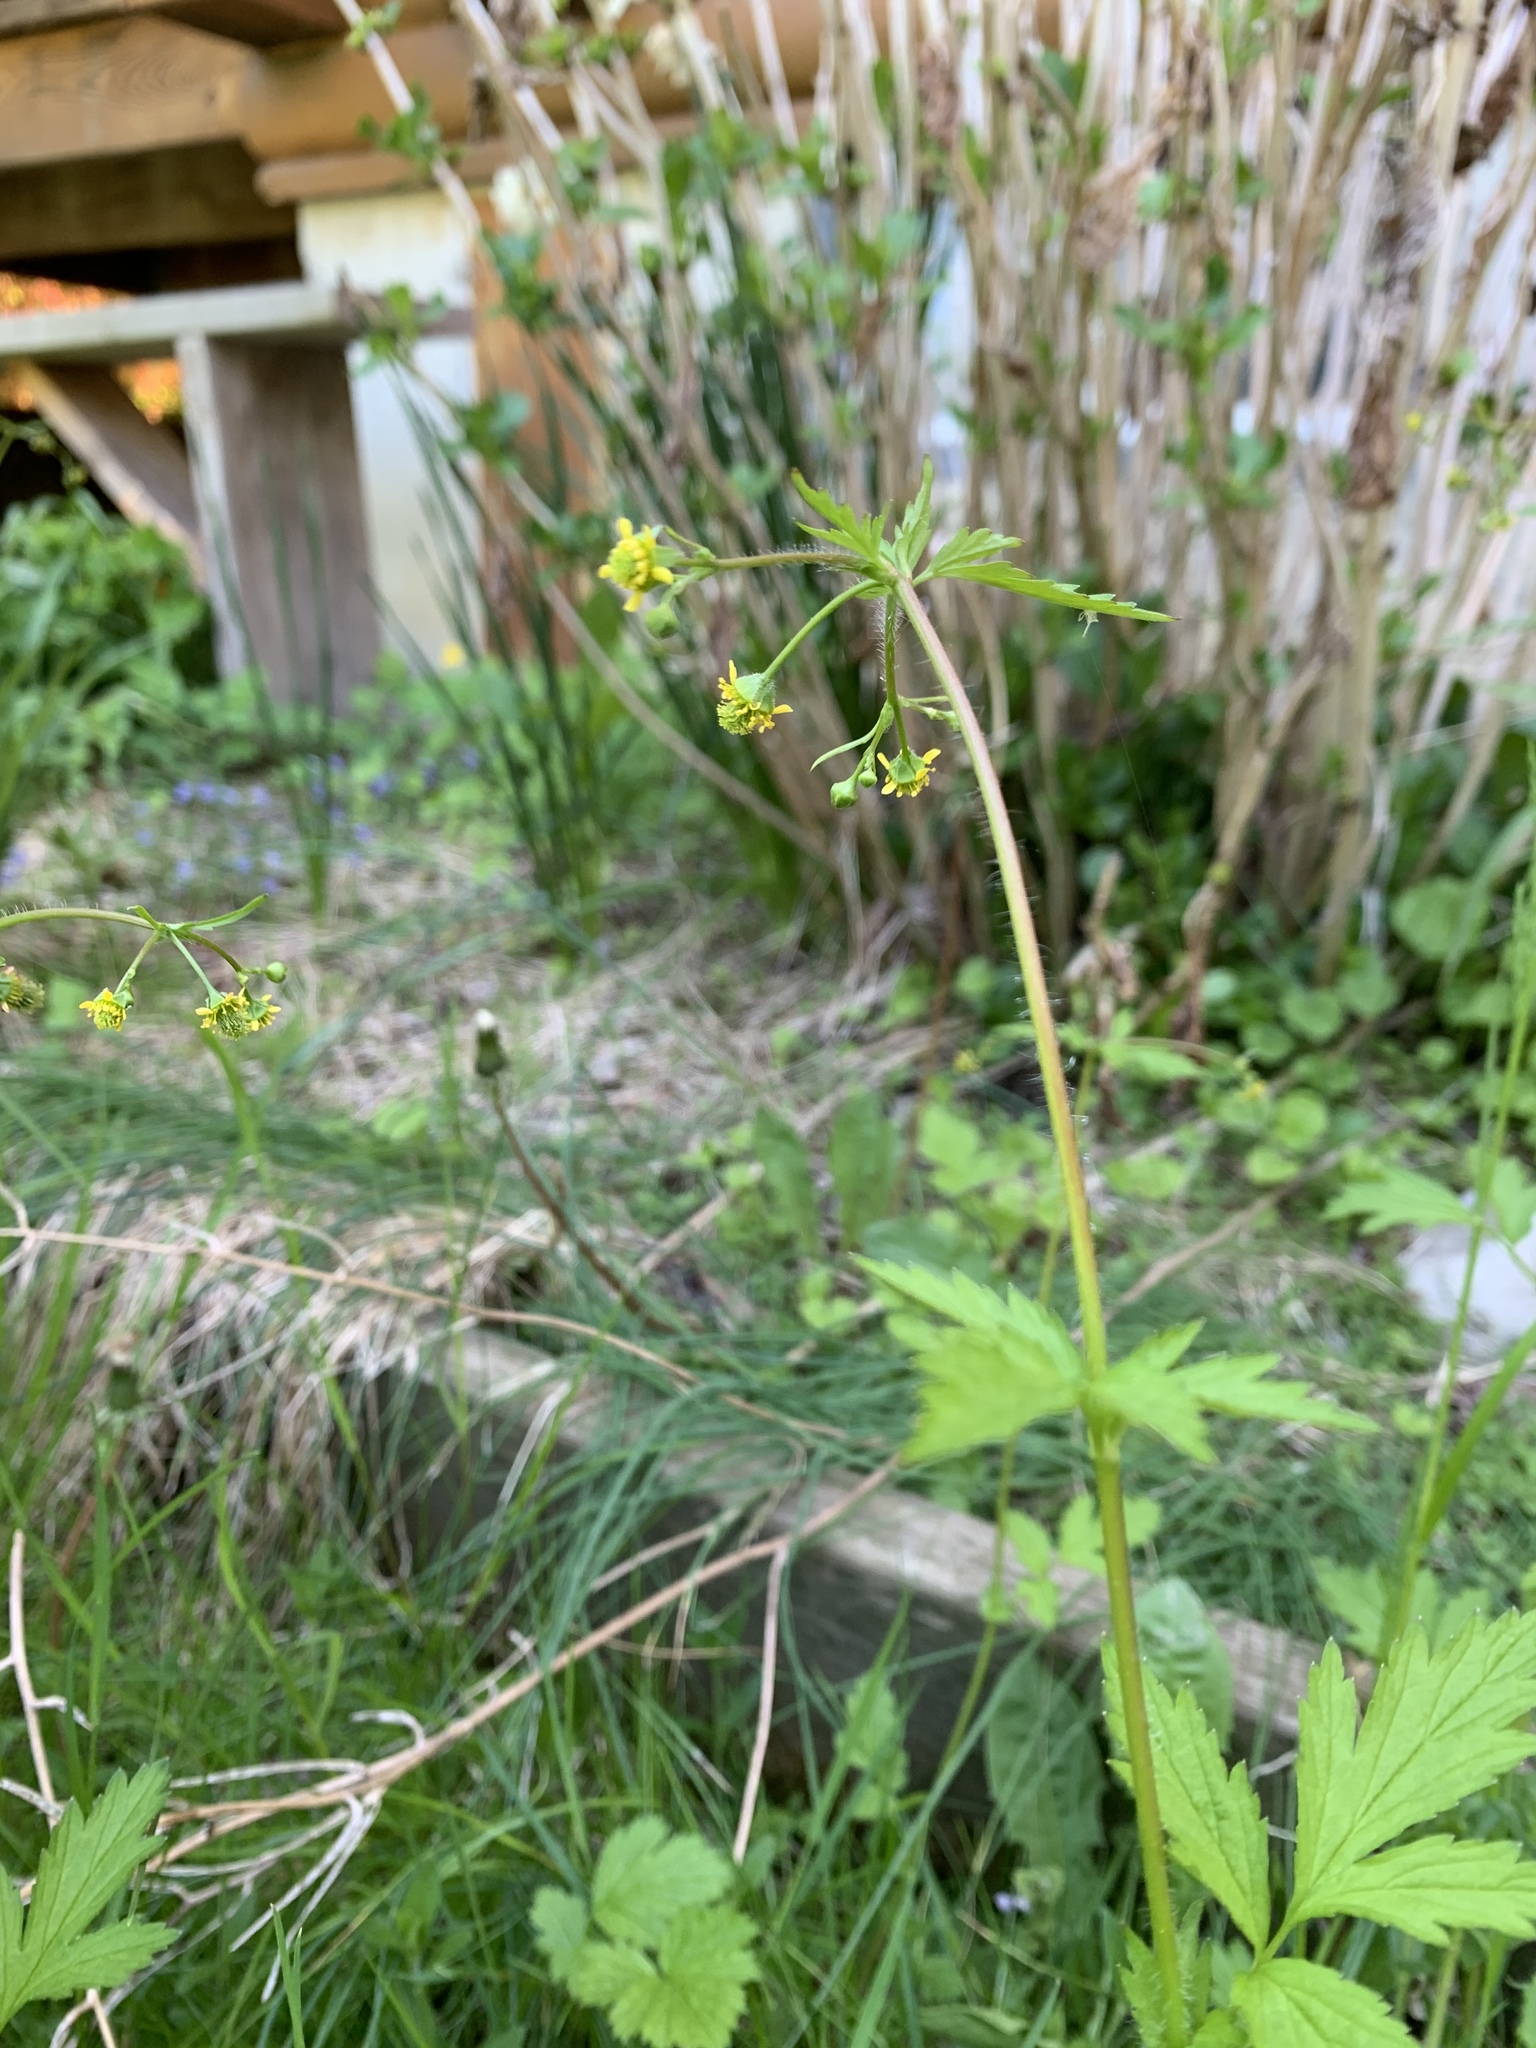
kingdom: Plantae
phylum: Tracheophyta
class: Magnoliopsida
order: Rosales
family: Rosaceae
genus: Geum
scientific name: Geum vernum
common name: Spring avens
